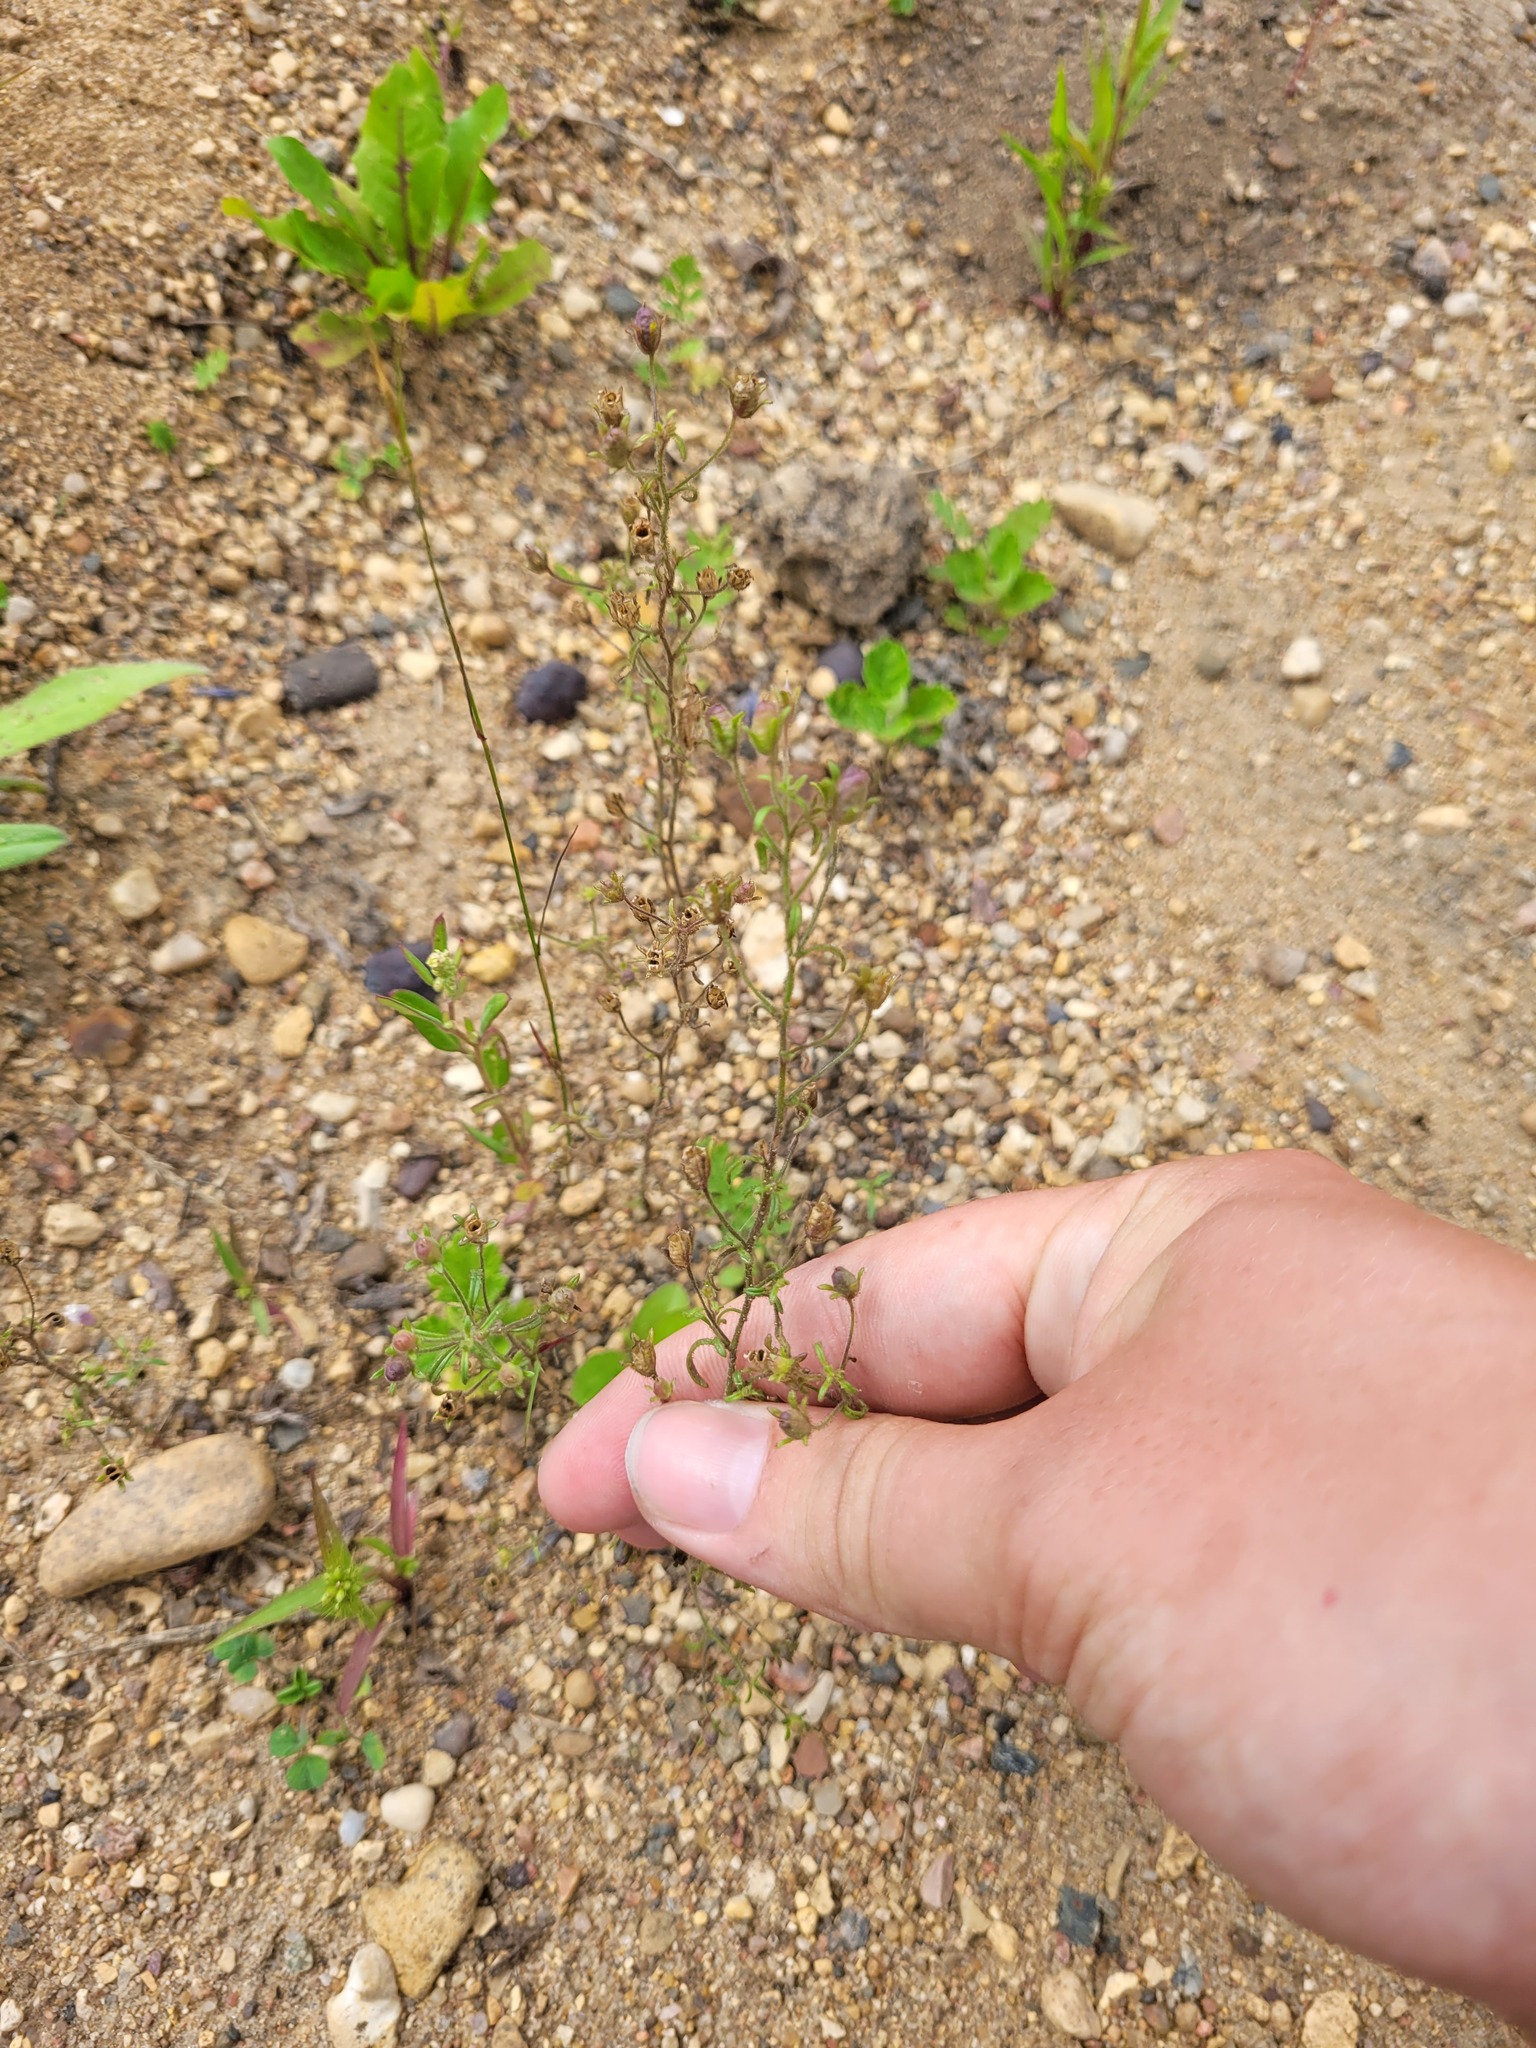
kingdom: Plantae
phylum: Tracheophyta
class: Magnoliopsida
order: Lamiales
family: Plantaginaceae
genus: Chaenorhinum
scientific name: Chaenorhinum minus
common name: Dwarf snapdragon
